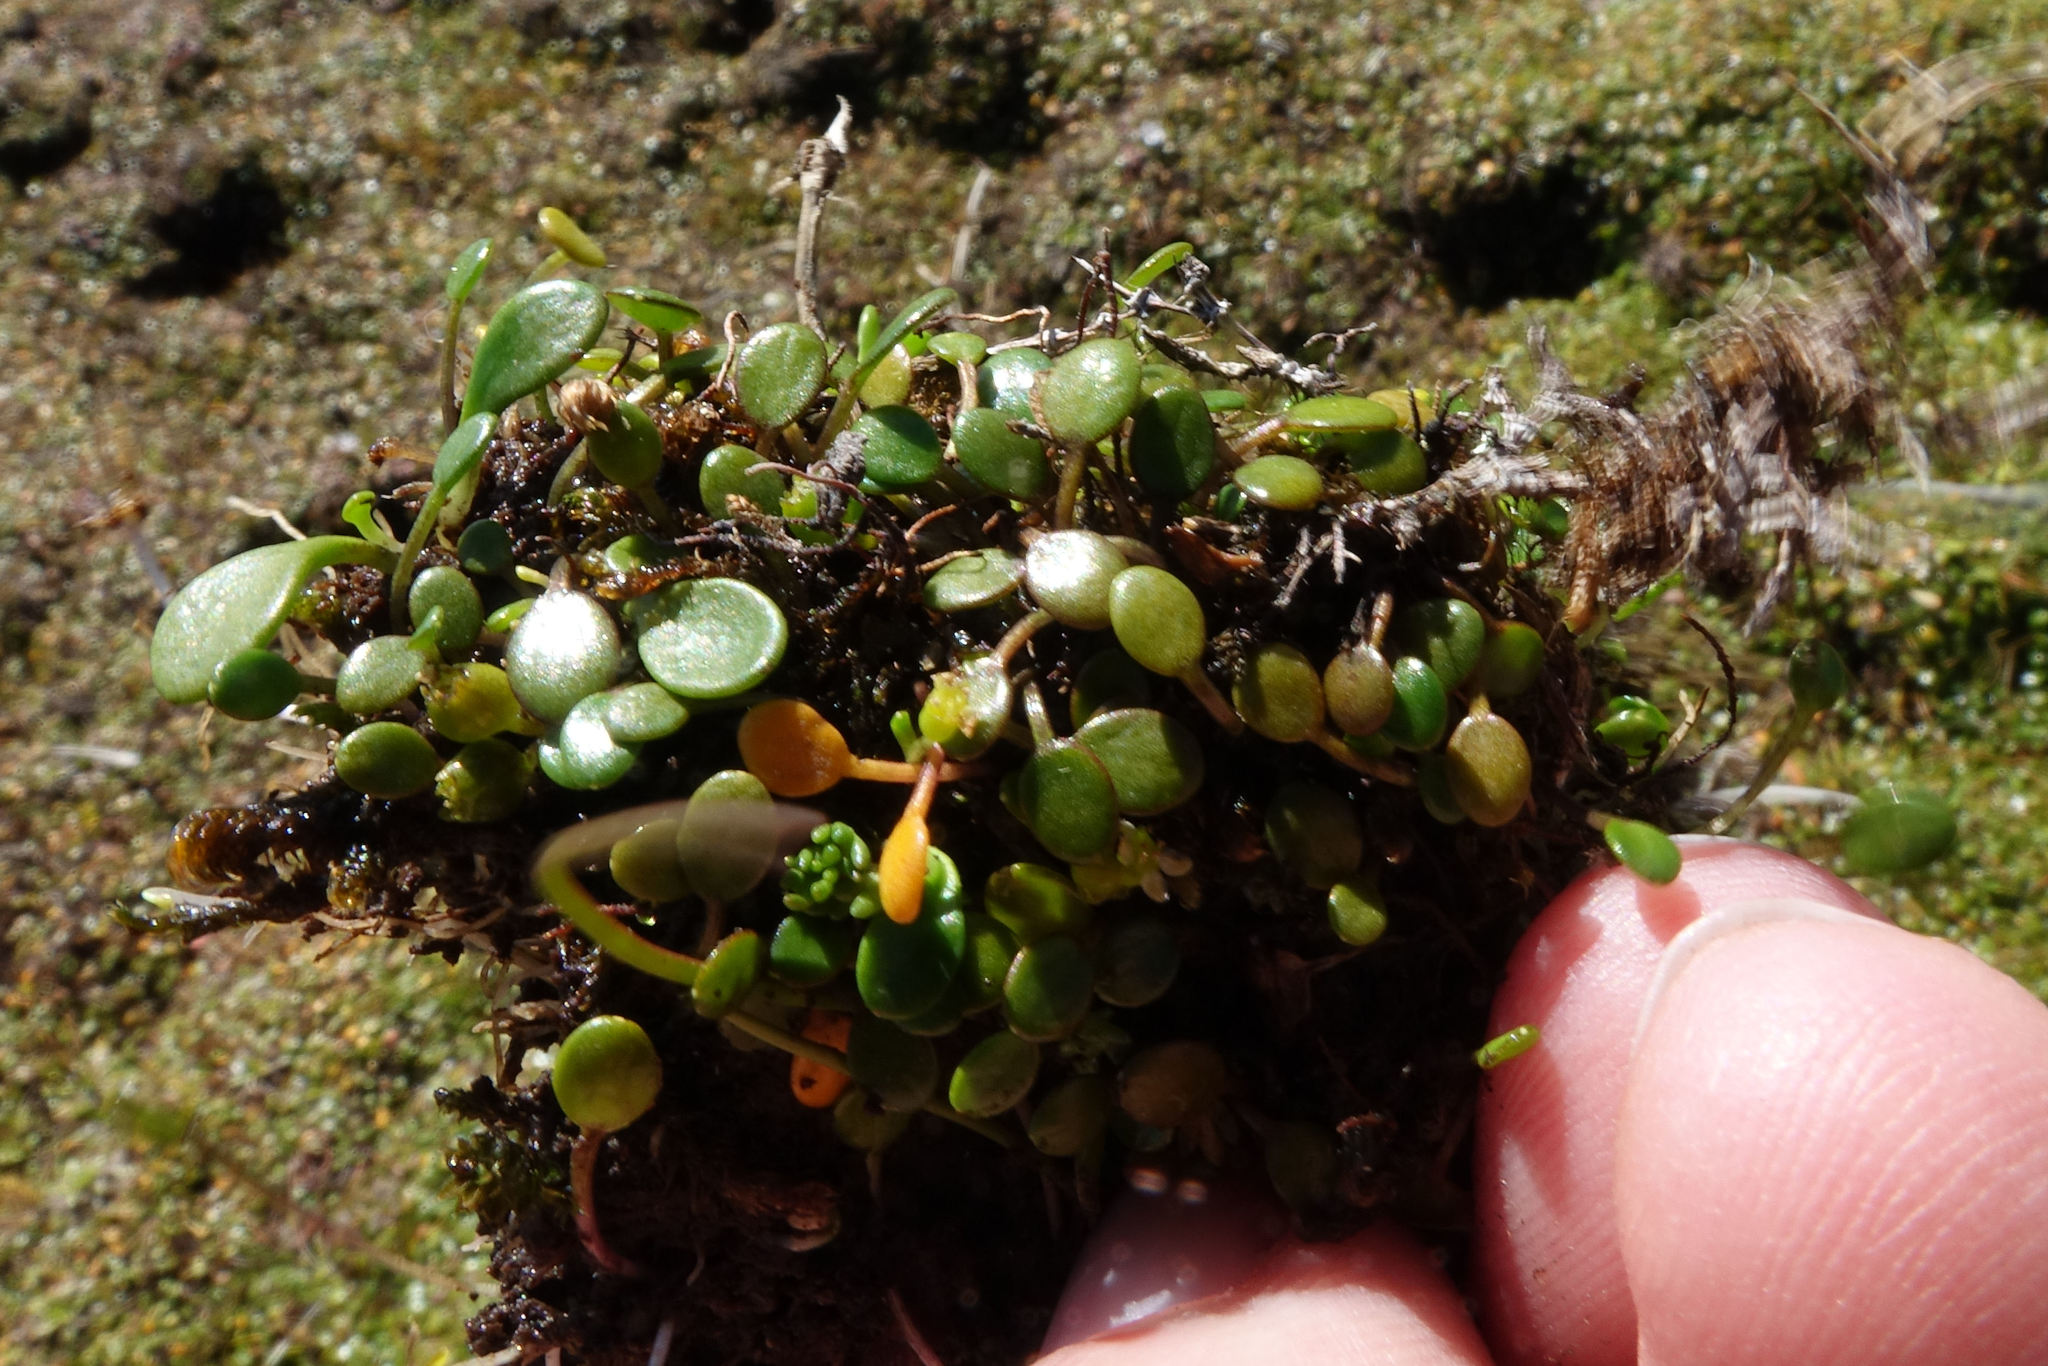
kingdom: Plantae
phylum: Tracheophyta
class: Magnoliopsida
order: Apiales
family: Apiaceae
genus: Azorella
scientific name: Azorella cockaynei
